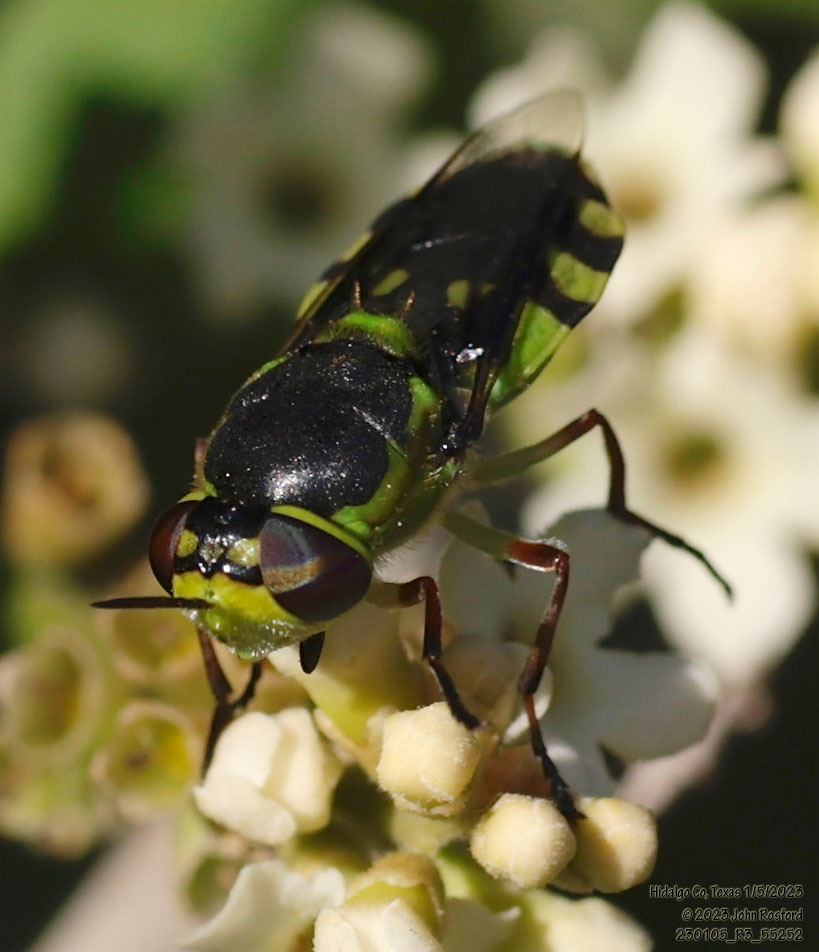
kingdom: Animalia
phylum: Arthropoda
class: Insecta
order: Diptera
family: Stratiomyidae
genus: Hedriodiscus
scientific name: Hedriodiscus truquii
